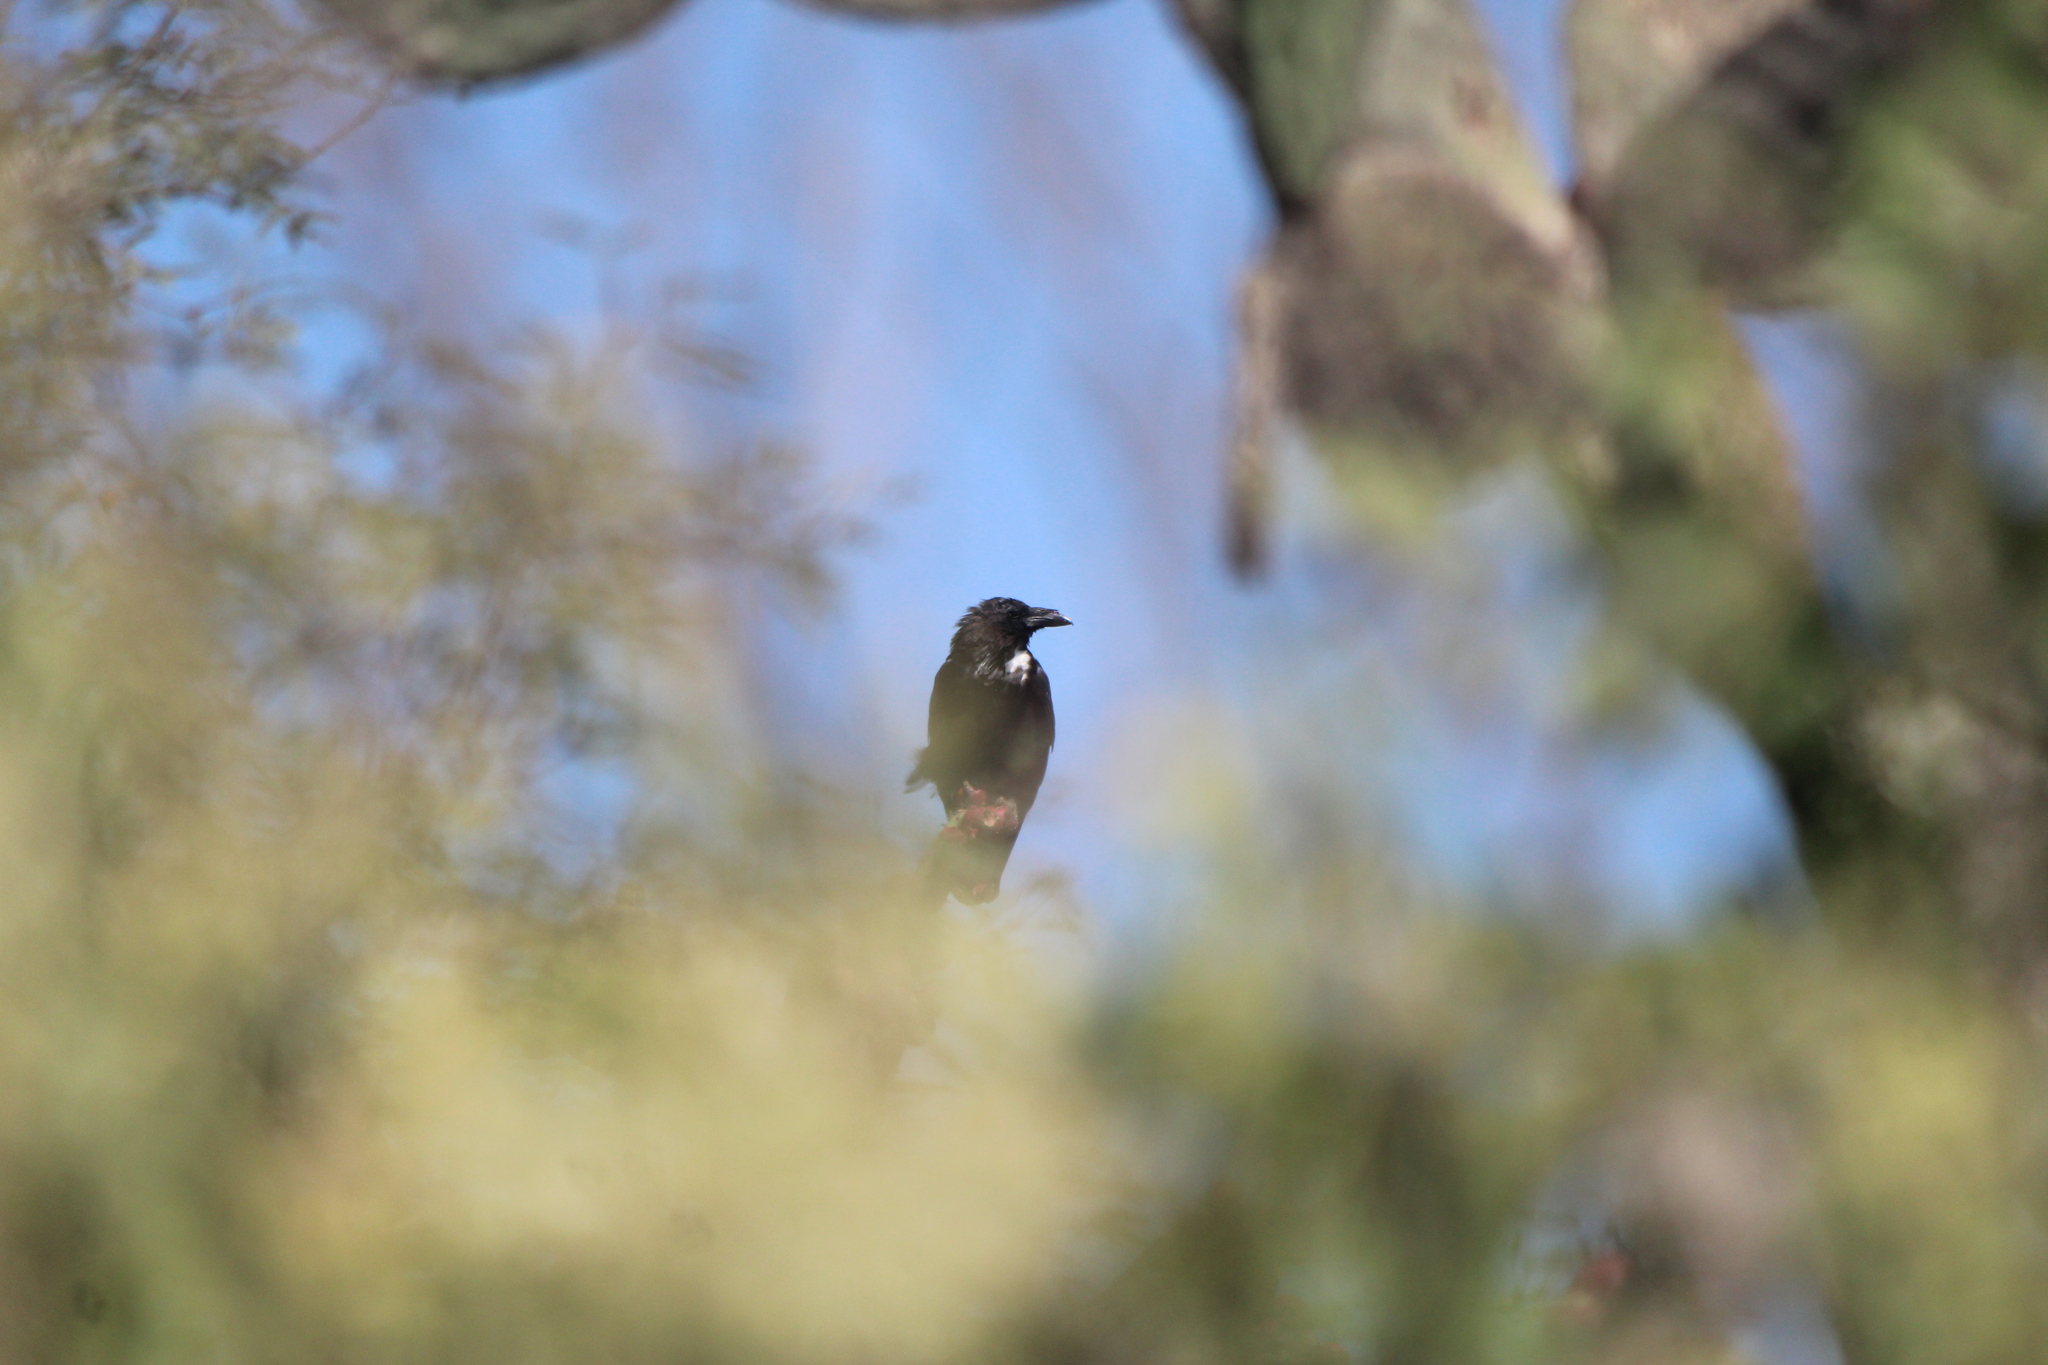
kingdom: Animalia
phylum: Chordata
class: Aves
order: Passeriformes
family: Corvidae
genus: Corvus
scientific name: Corvus cryptoleucus
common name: Chihuahuan raven
